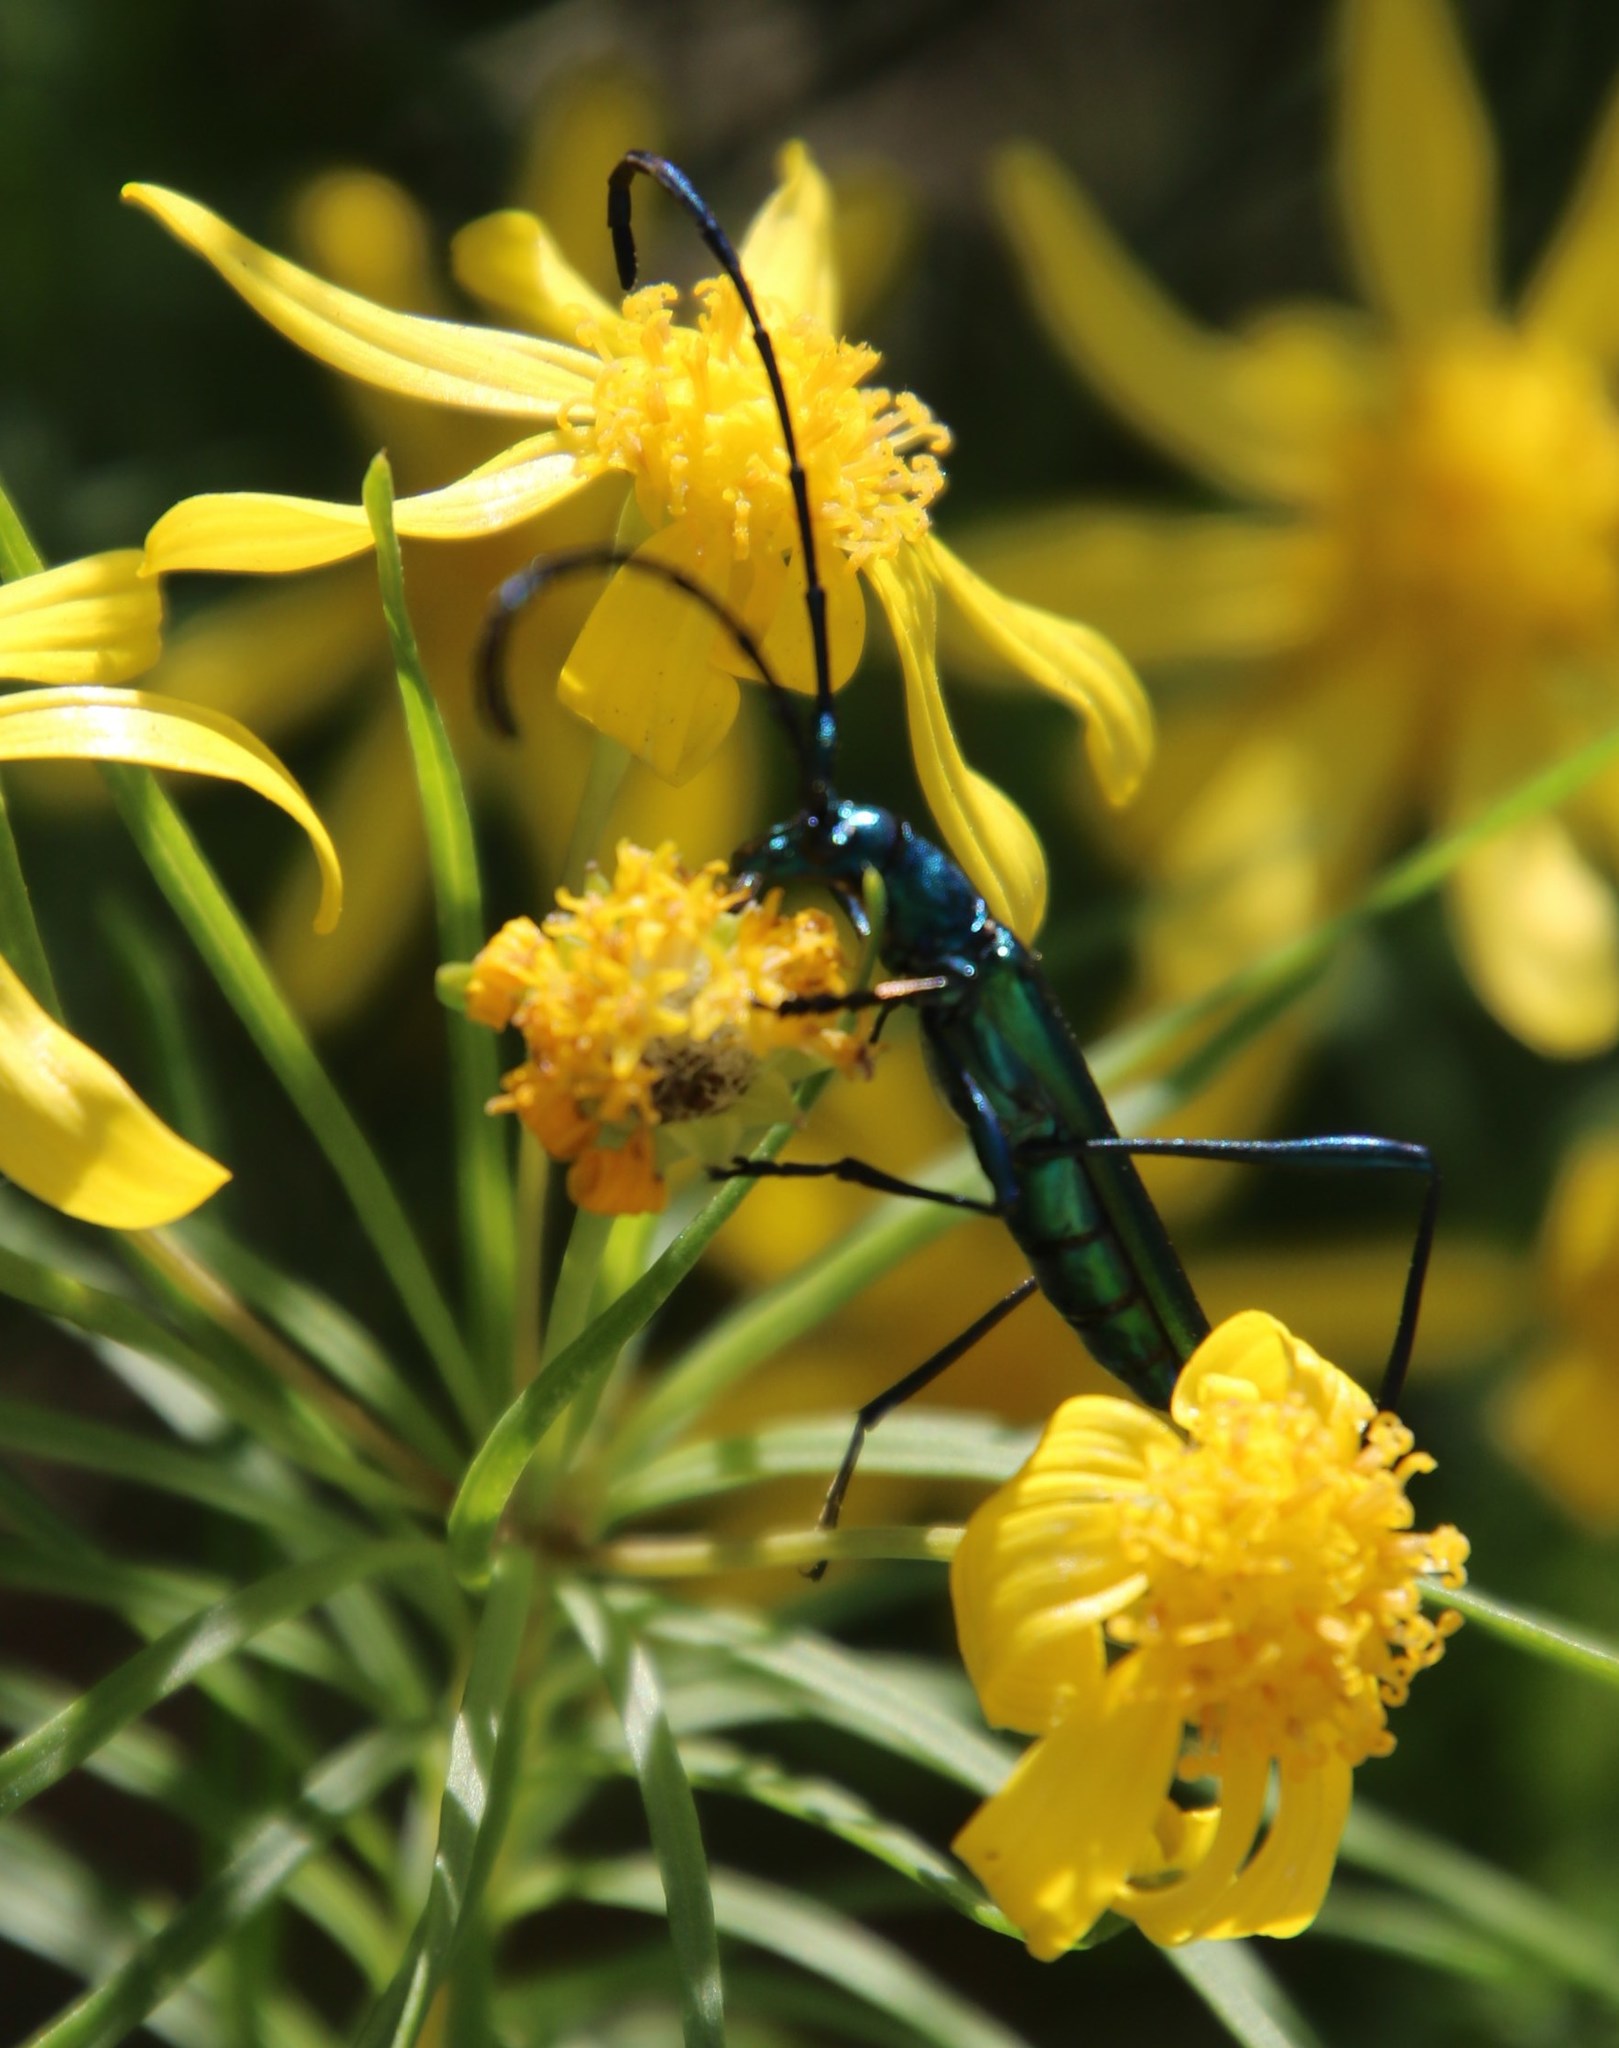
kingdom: Animalia
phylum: Arthropoda
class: Insecta
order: Coleoptera
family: Cerambycidae
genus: Promeces
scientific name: Promeces longipes
